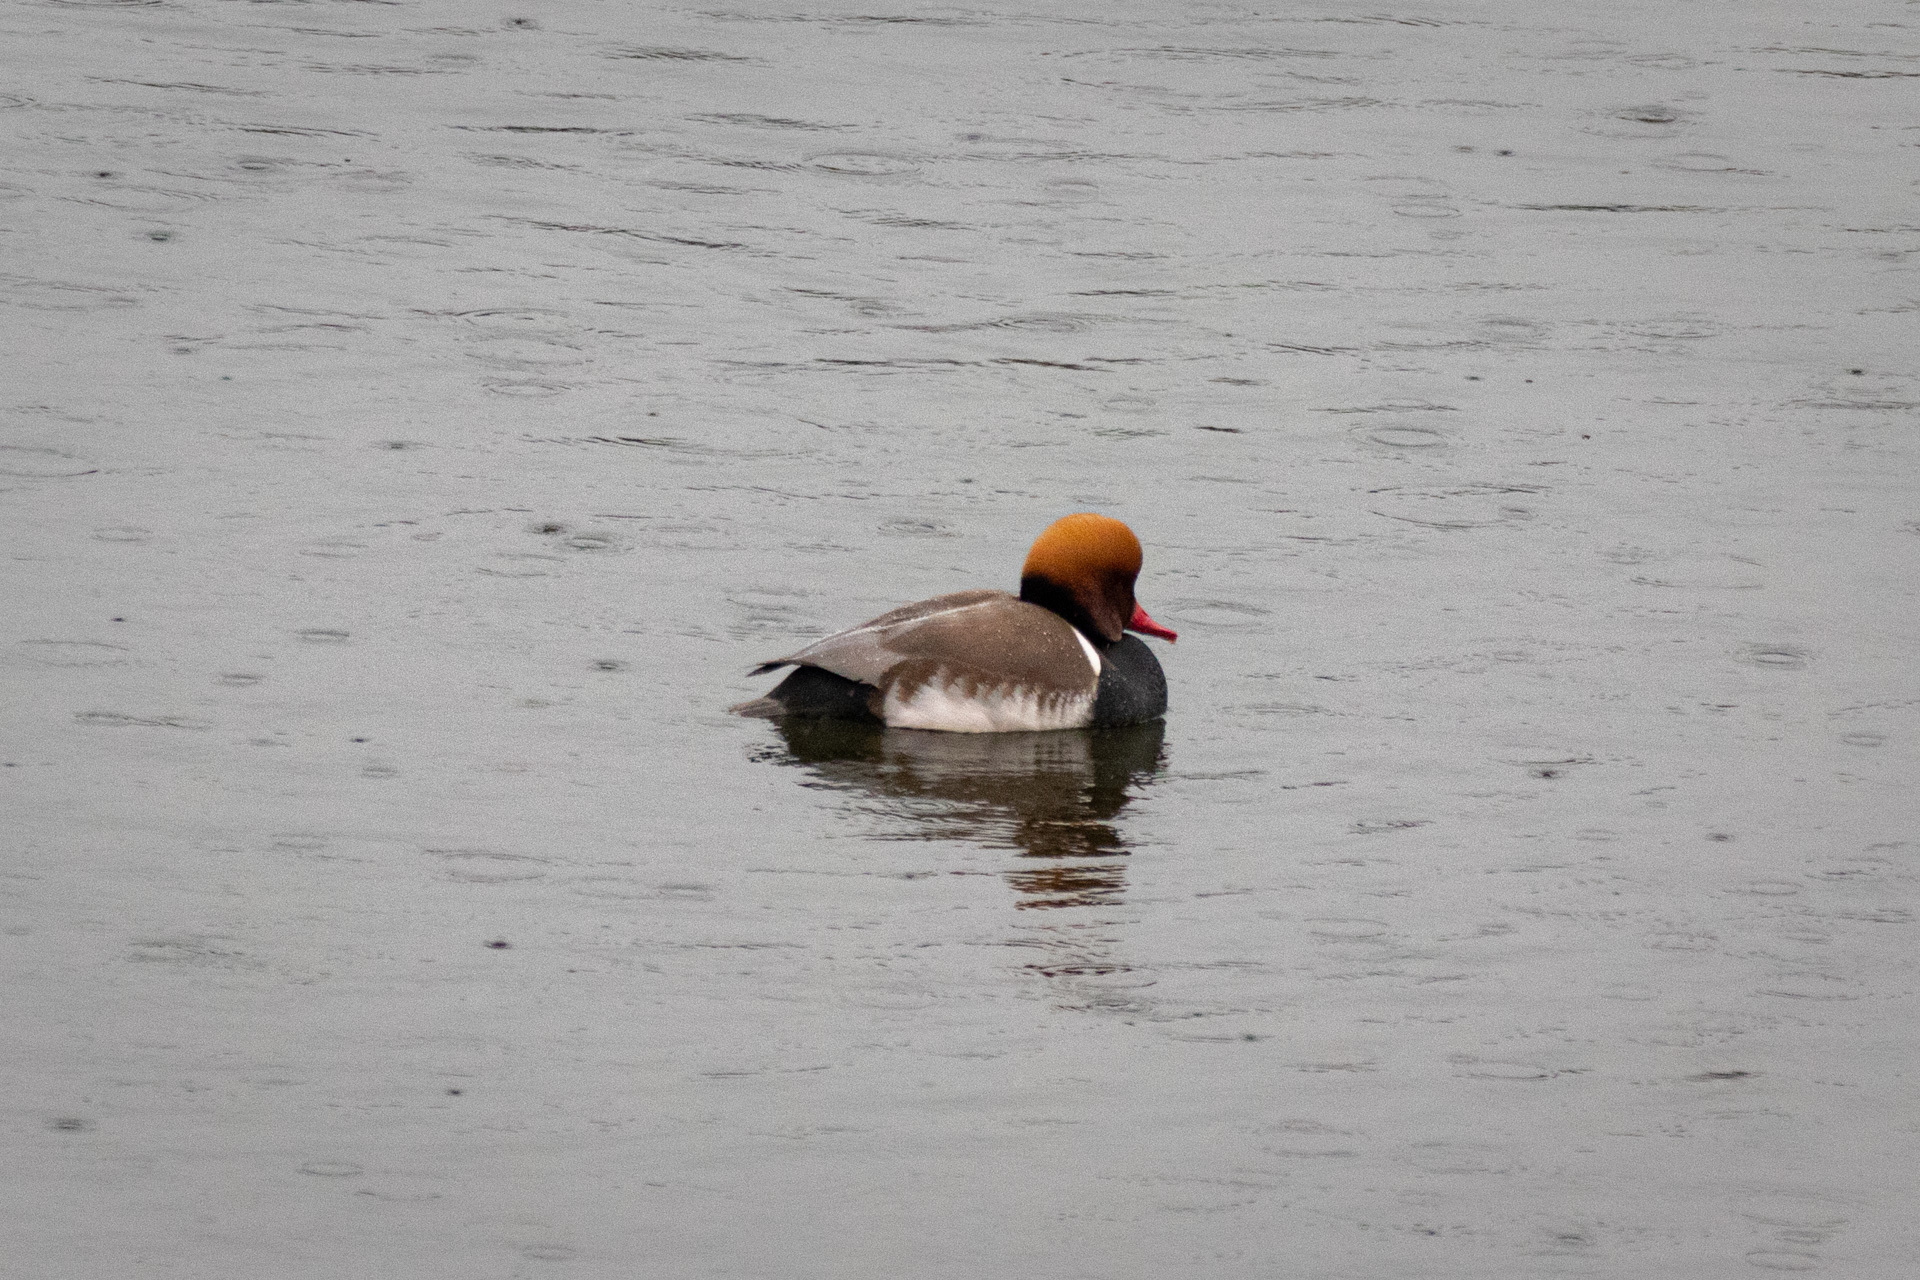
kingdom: Animalia
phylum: Chordata
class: Aves
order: Anseriformes
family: Anatidae
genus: Netta
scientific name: Netta rufina
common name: Red-crested pochard
